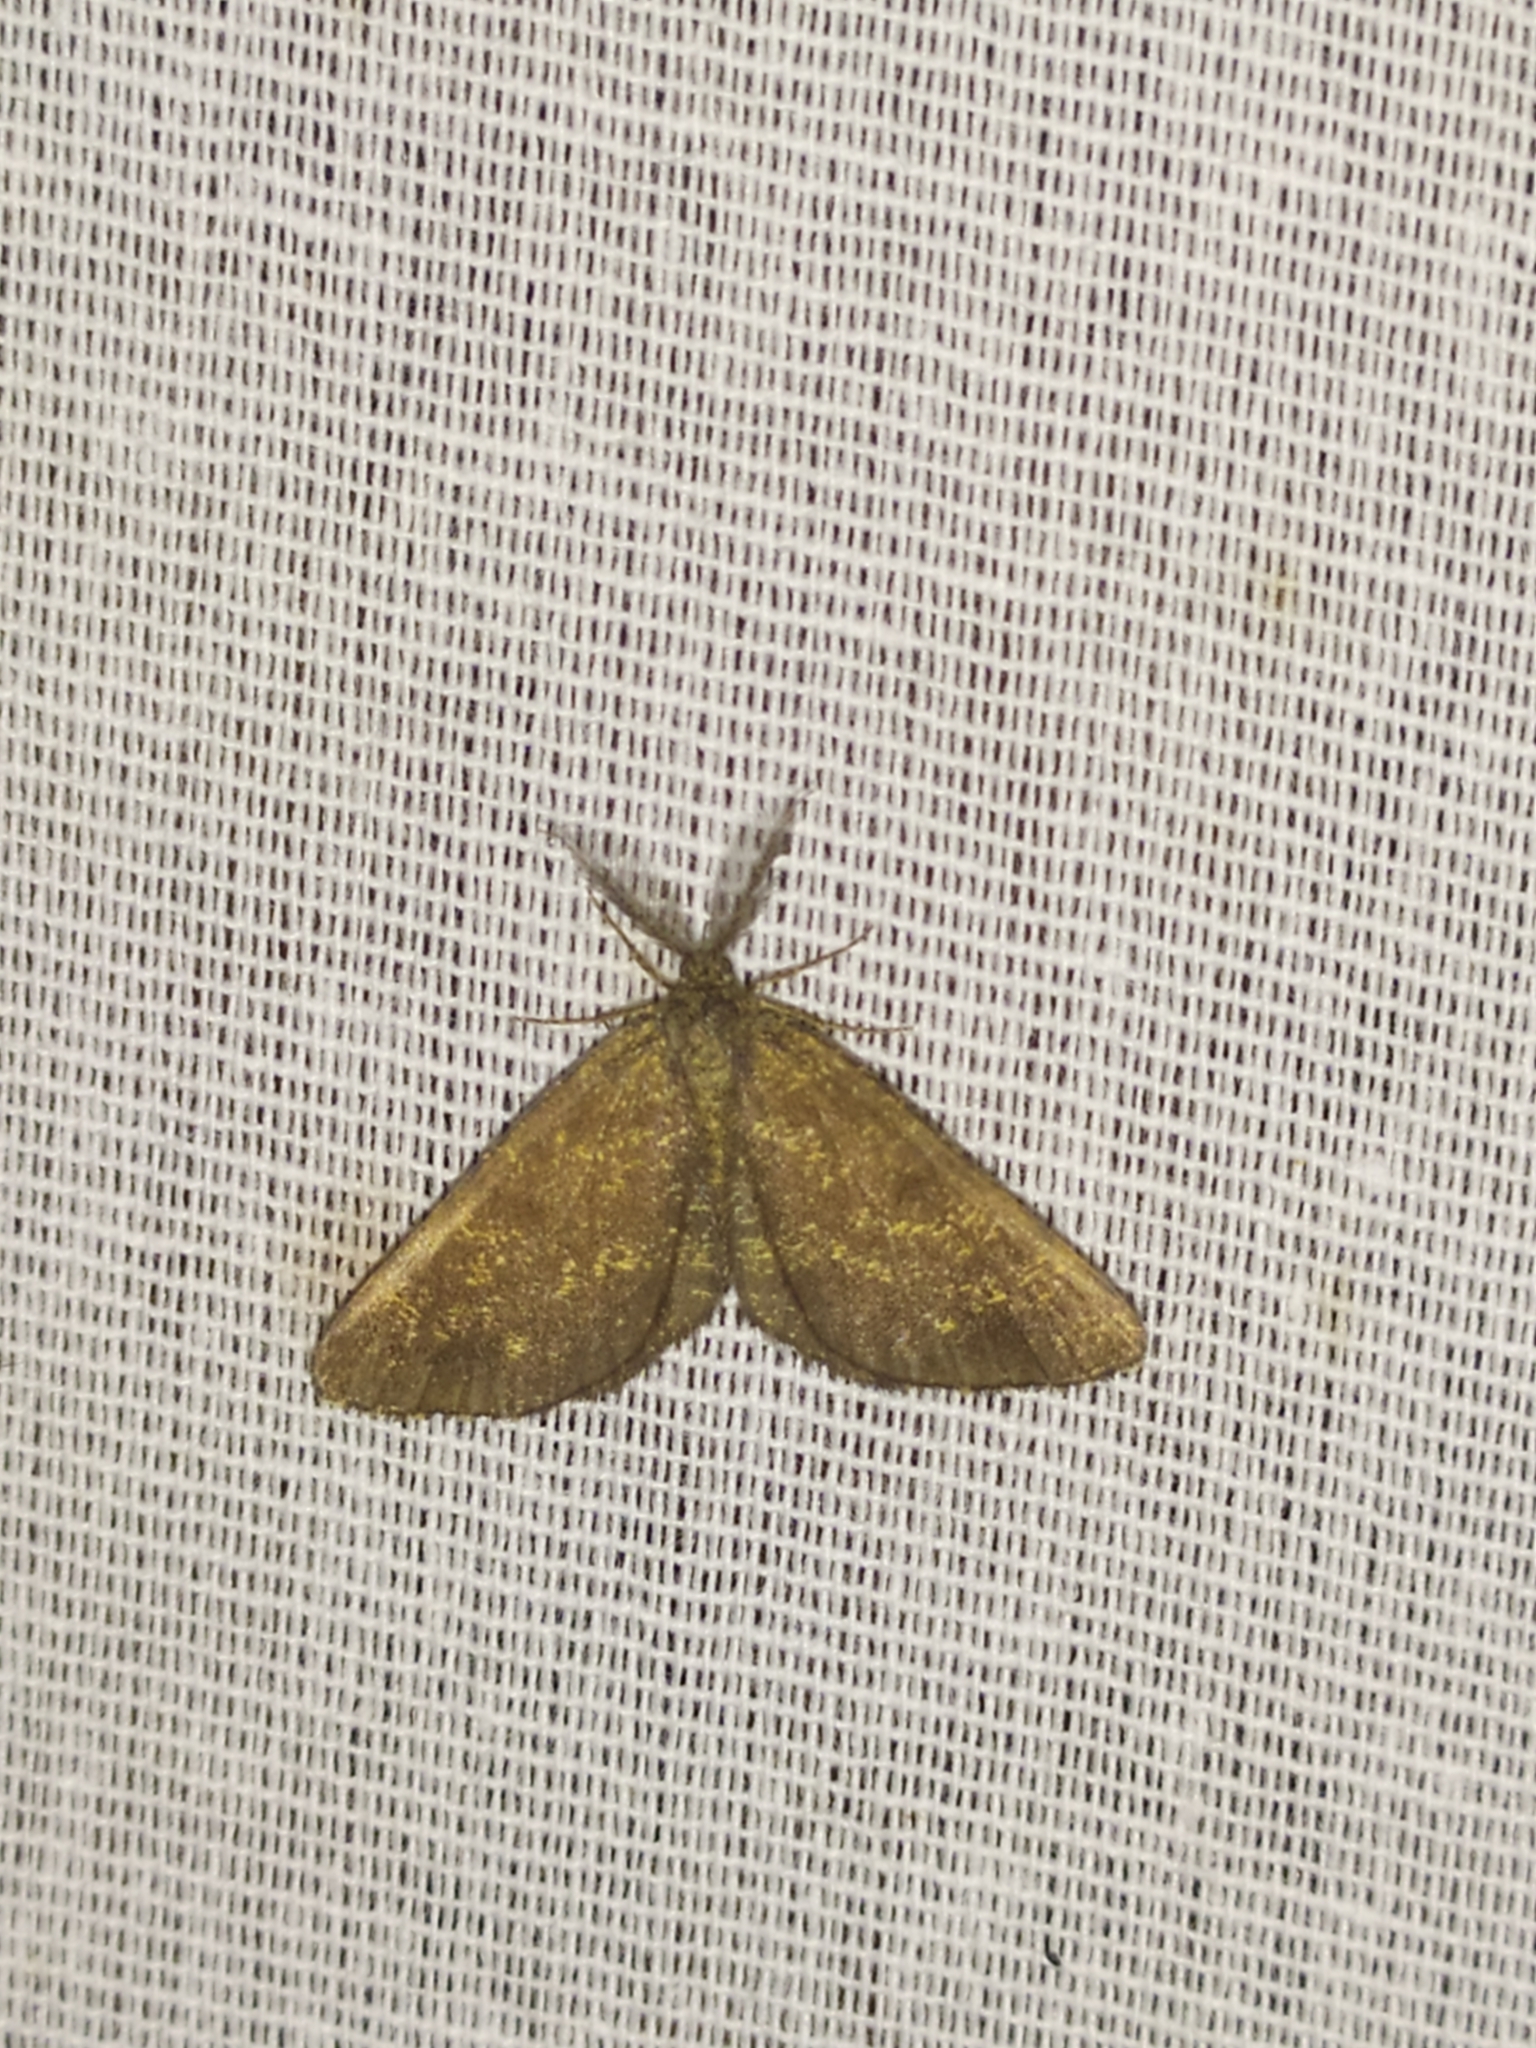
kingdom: Animalia
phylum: Arthropoda
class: Insecta
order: Lepidoptera
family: Geometridae
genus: Ematurga
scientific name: Ematurga atomaria
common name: Common heath
